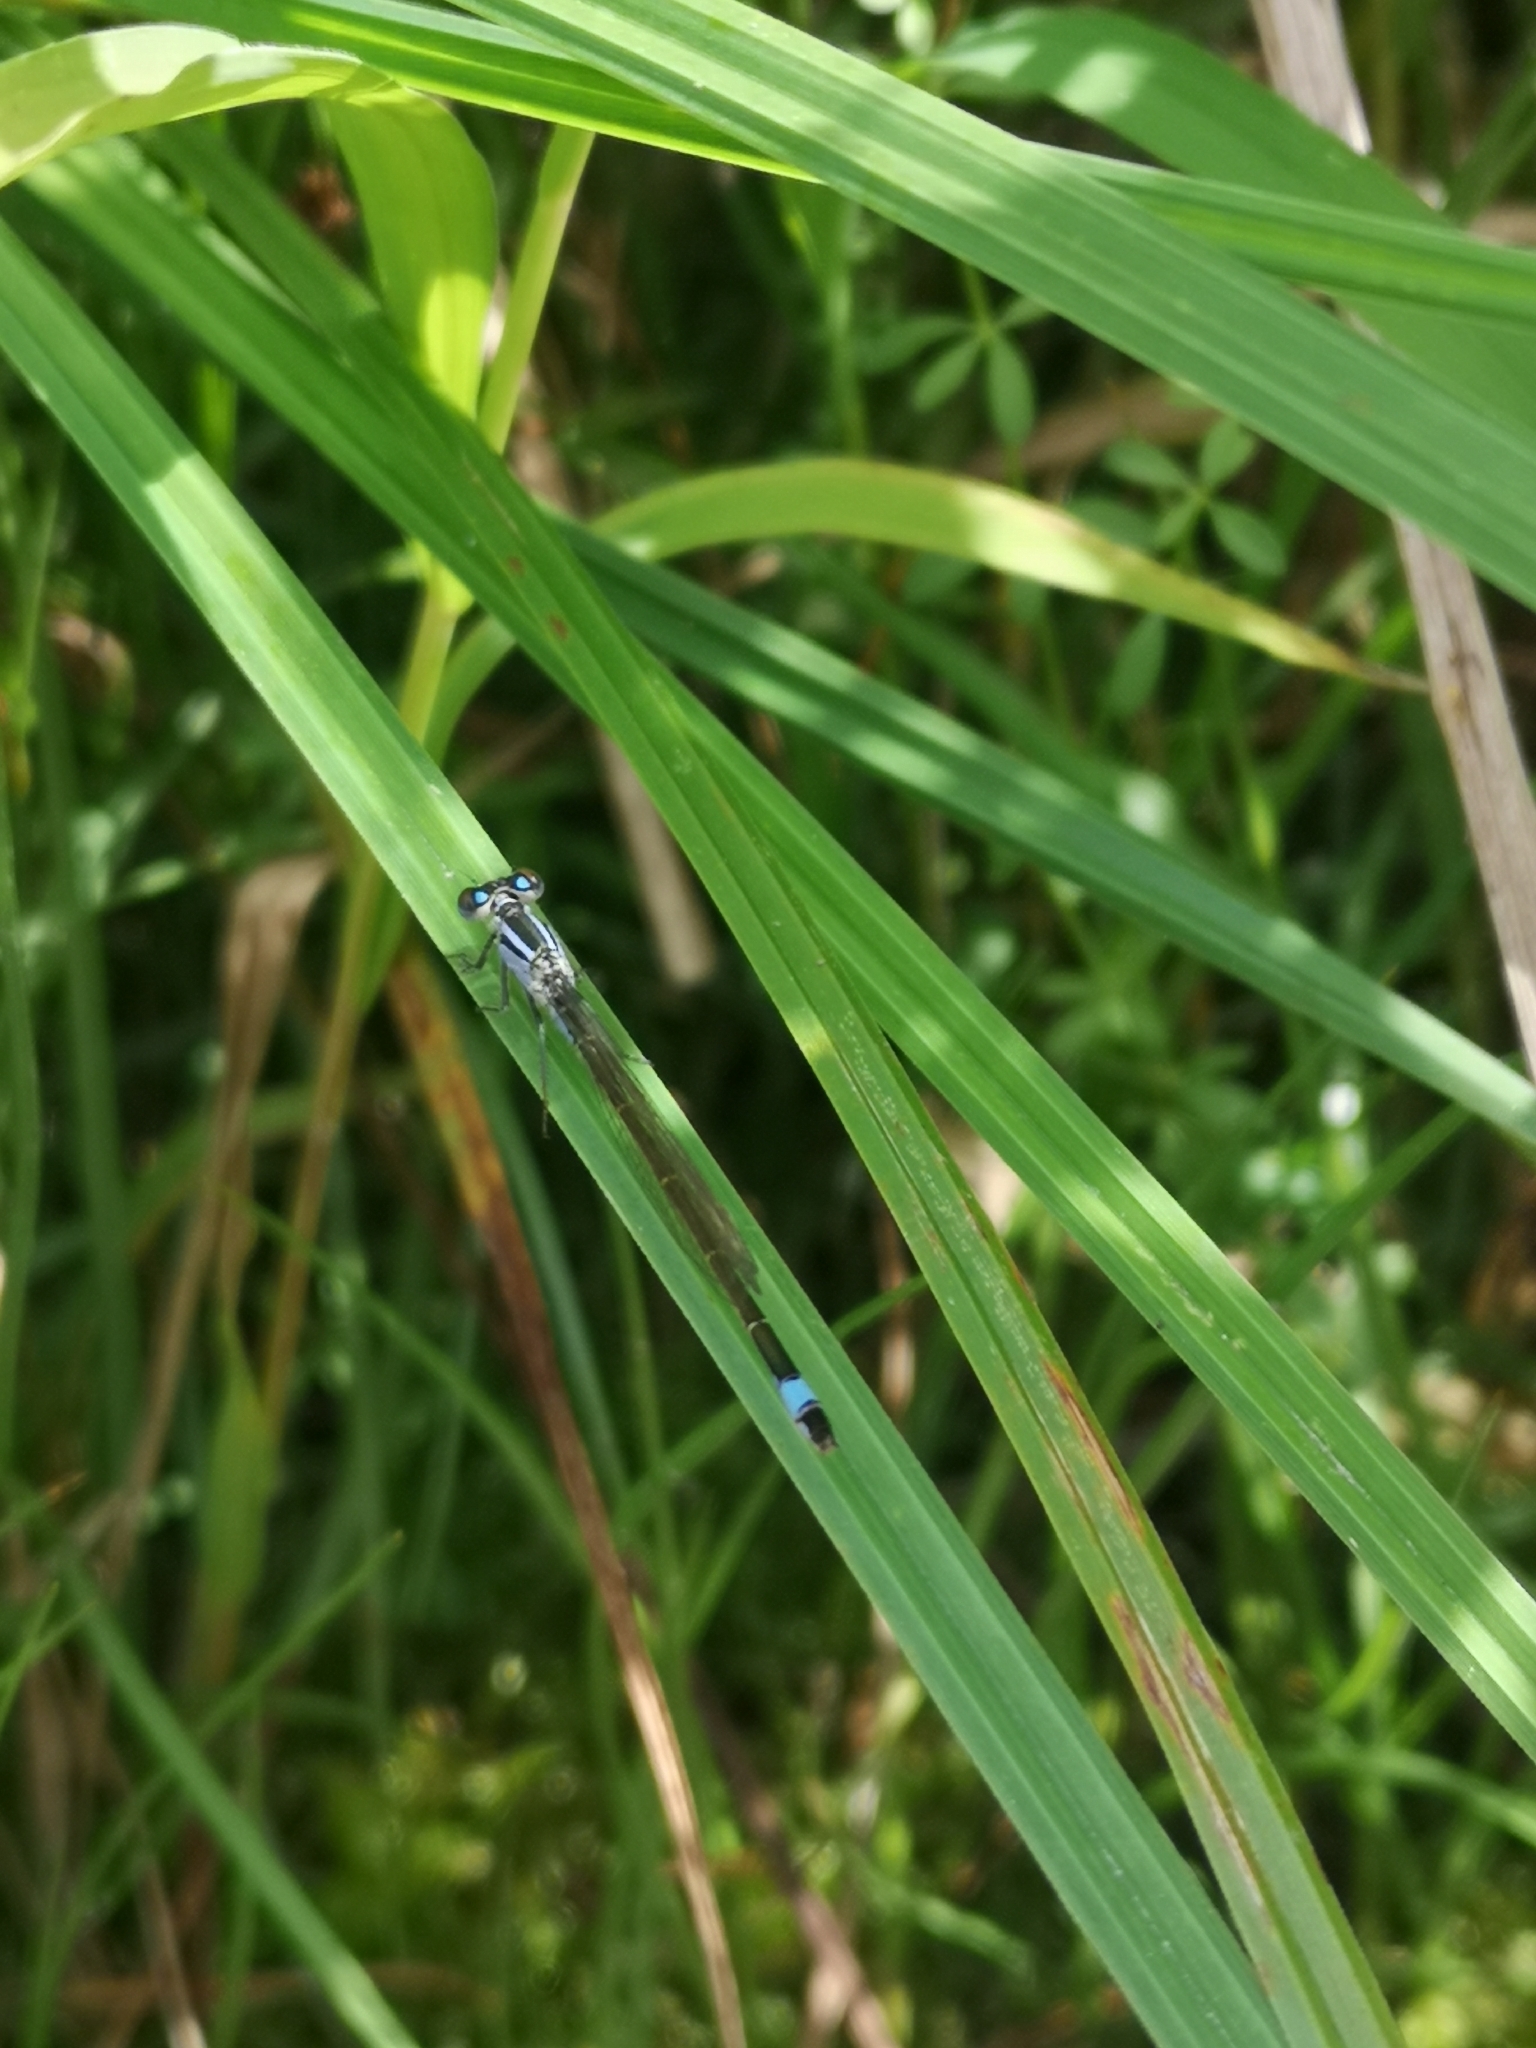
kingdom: Animalia
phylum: Arthropoda
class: Insecta
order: Odonata
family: Coenagrionidae
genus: Ischnura
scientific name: Ischnura elegans
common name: Blue-tailed damselfly
